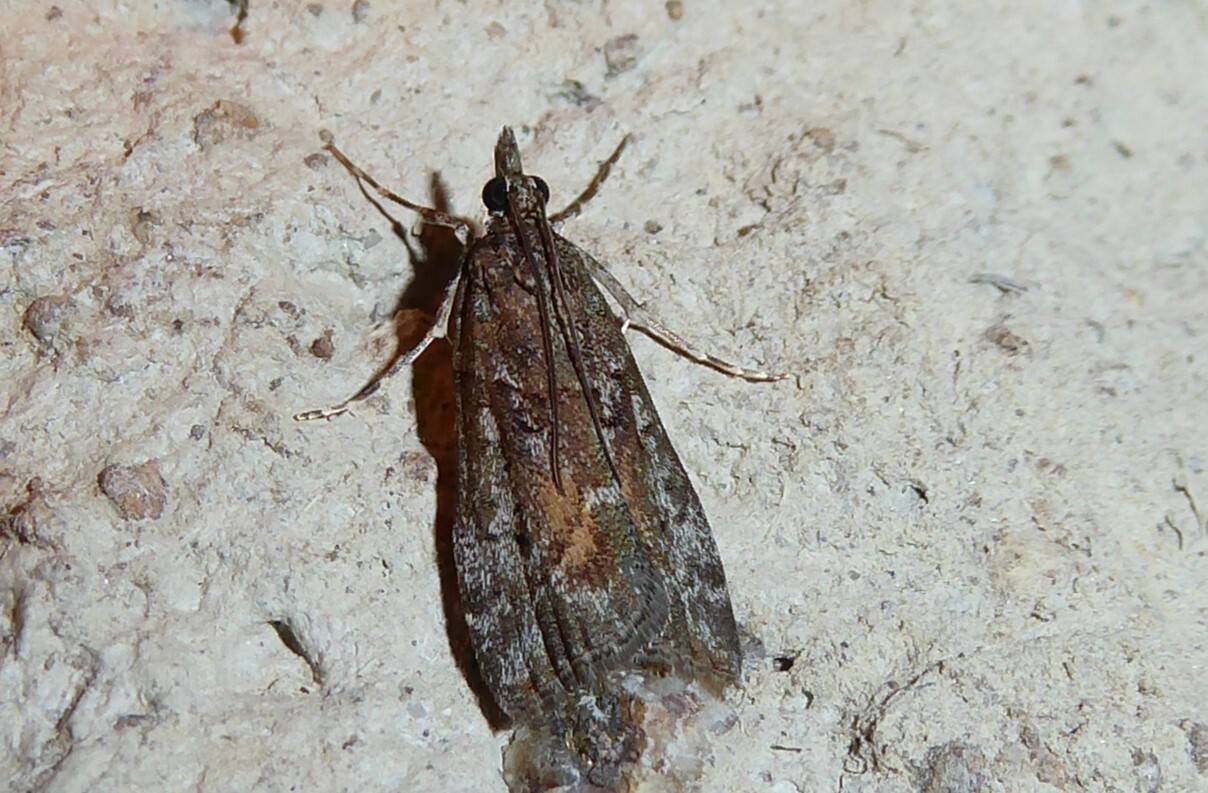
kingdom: Animalia
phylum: Arthropoda
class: Insecta
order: Lepidoptera
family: Crambidae
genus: Eudonia
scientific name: Eudonia submarginalis
